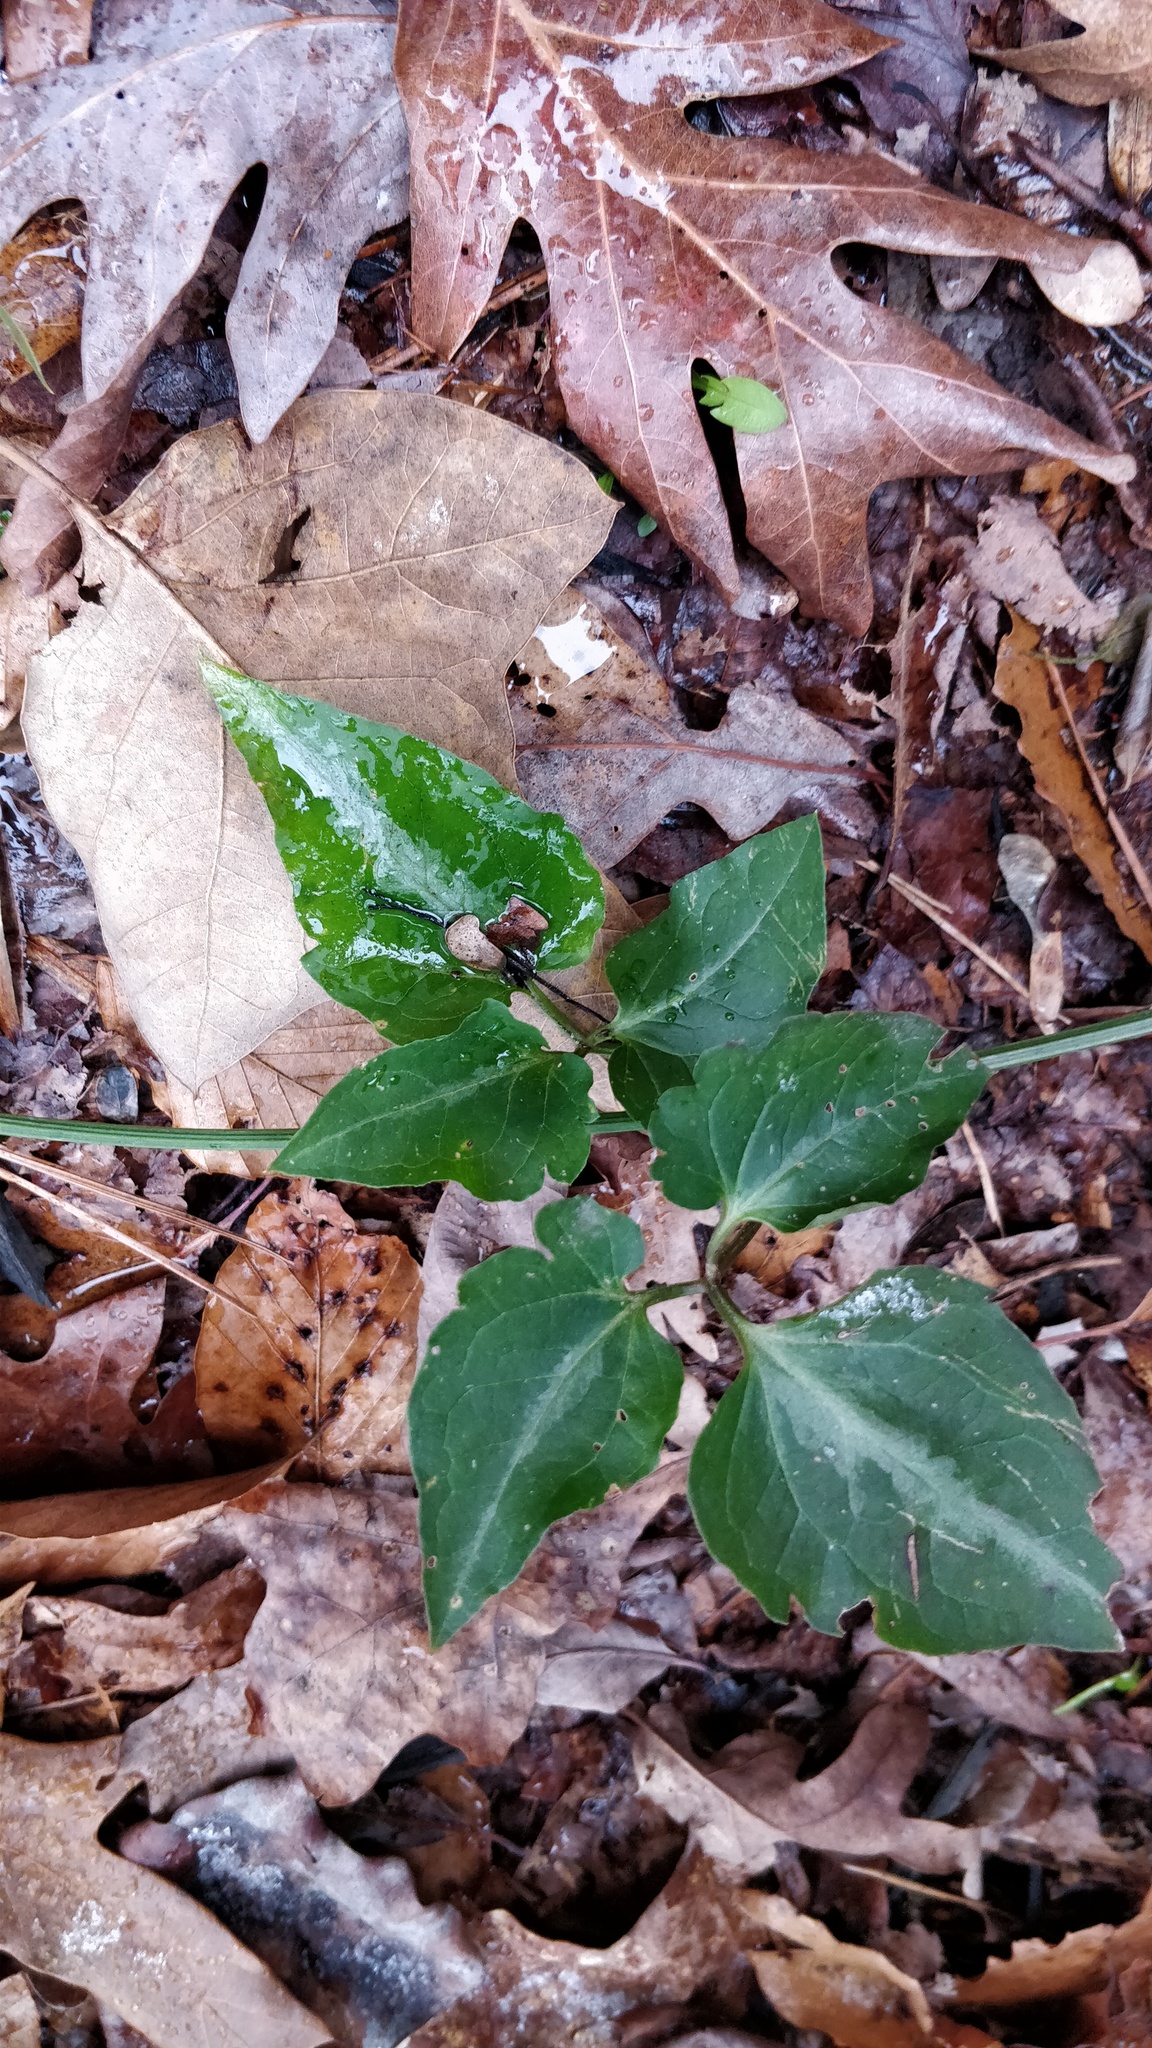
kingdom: Plantae
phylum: Tracheophyta
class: Magnoliopsida
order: Ranunculales
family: Ranunculaceae
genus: Clematis
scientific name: Clematis terniflora
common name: Sweet autumn clematis
